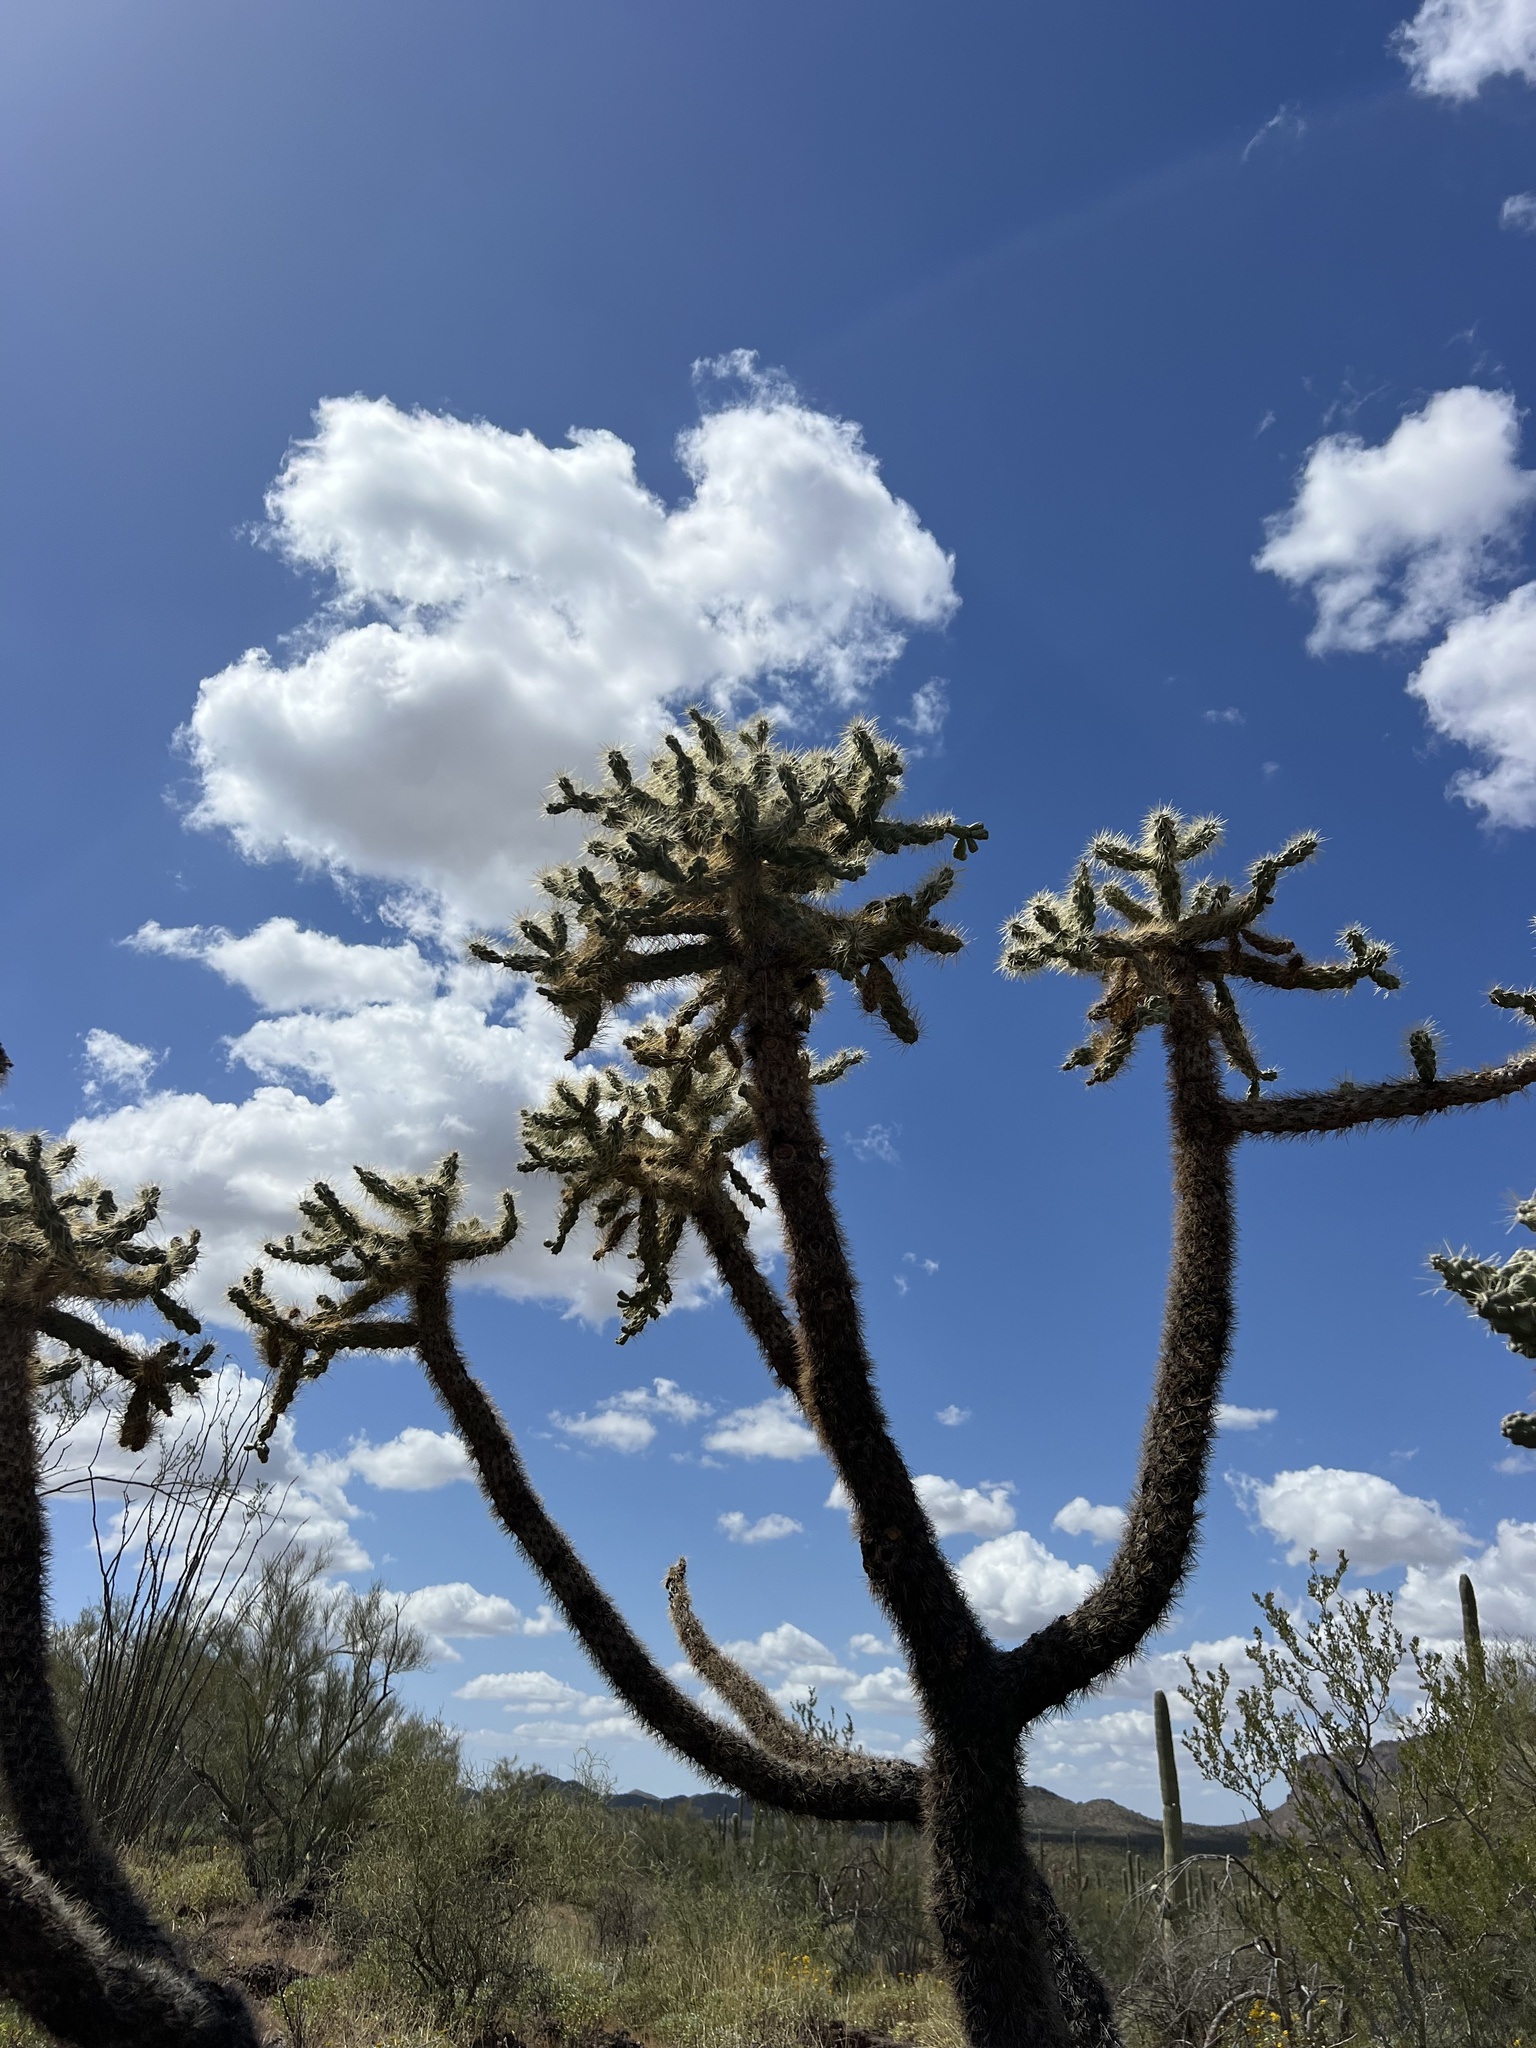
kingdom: Plantae
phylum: Tracheophyta
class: Magnoliopsida
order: Caryophyllales
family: Cactaceae
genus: Cylindropuntia
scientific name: Cylindropuntia fulgida
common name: Jumping cholla
